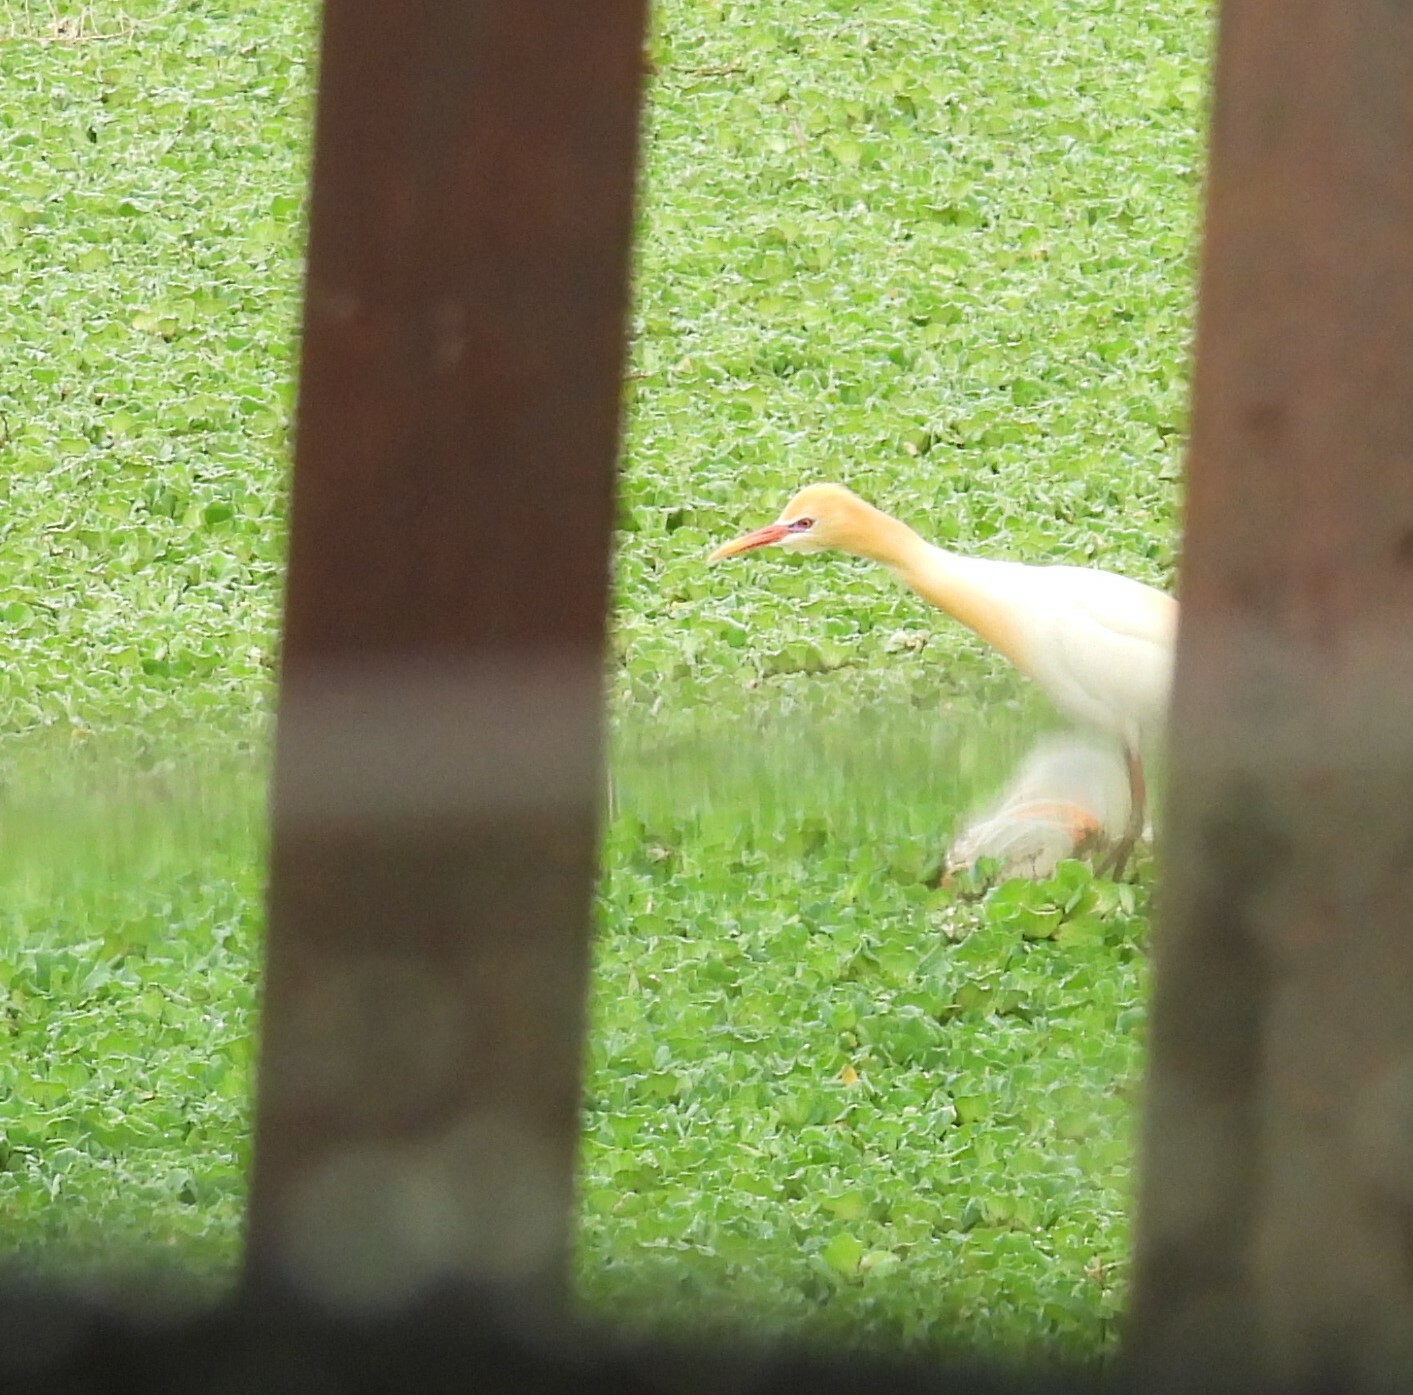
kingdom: Animalia
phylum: Chordata
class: Aves
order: Pelecaniformes
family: Ardeidae
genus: Bubulcus
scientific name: Bubulcus coromandus
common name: Eastern cattle egret
